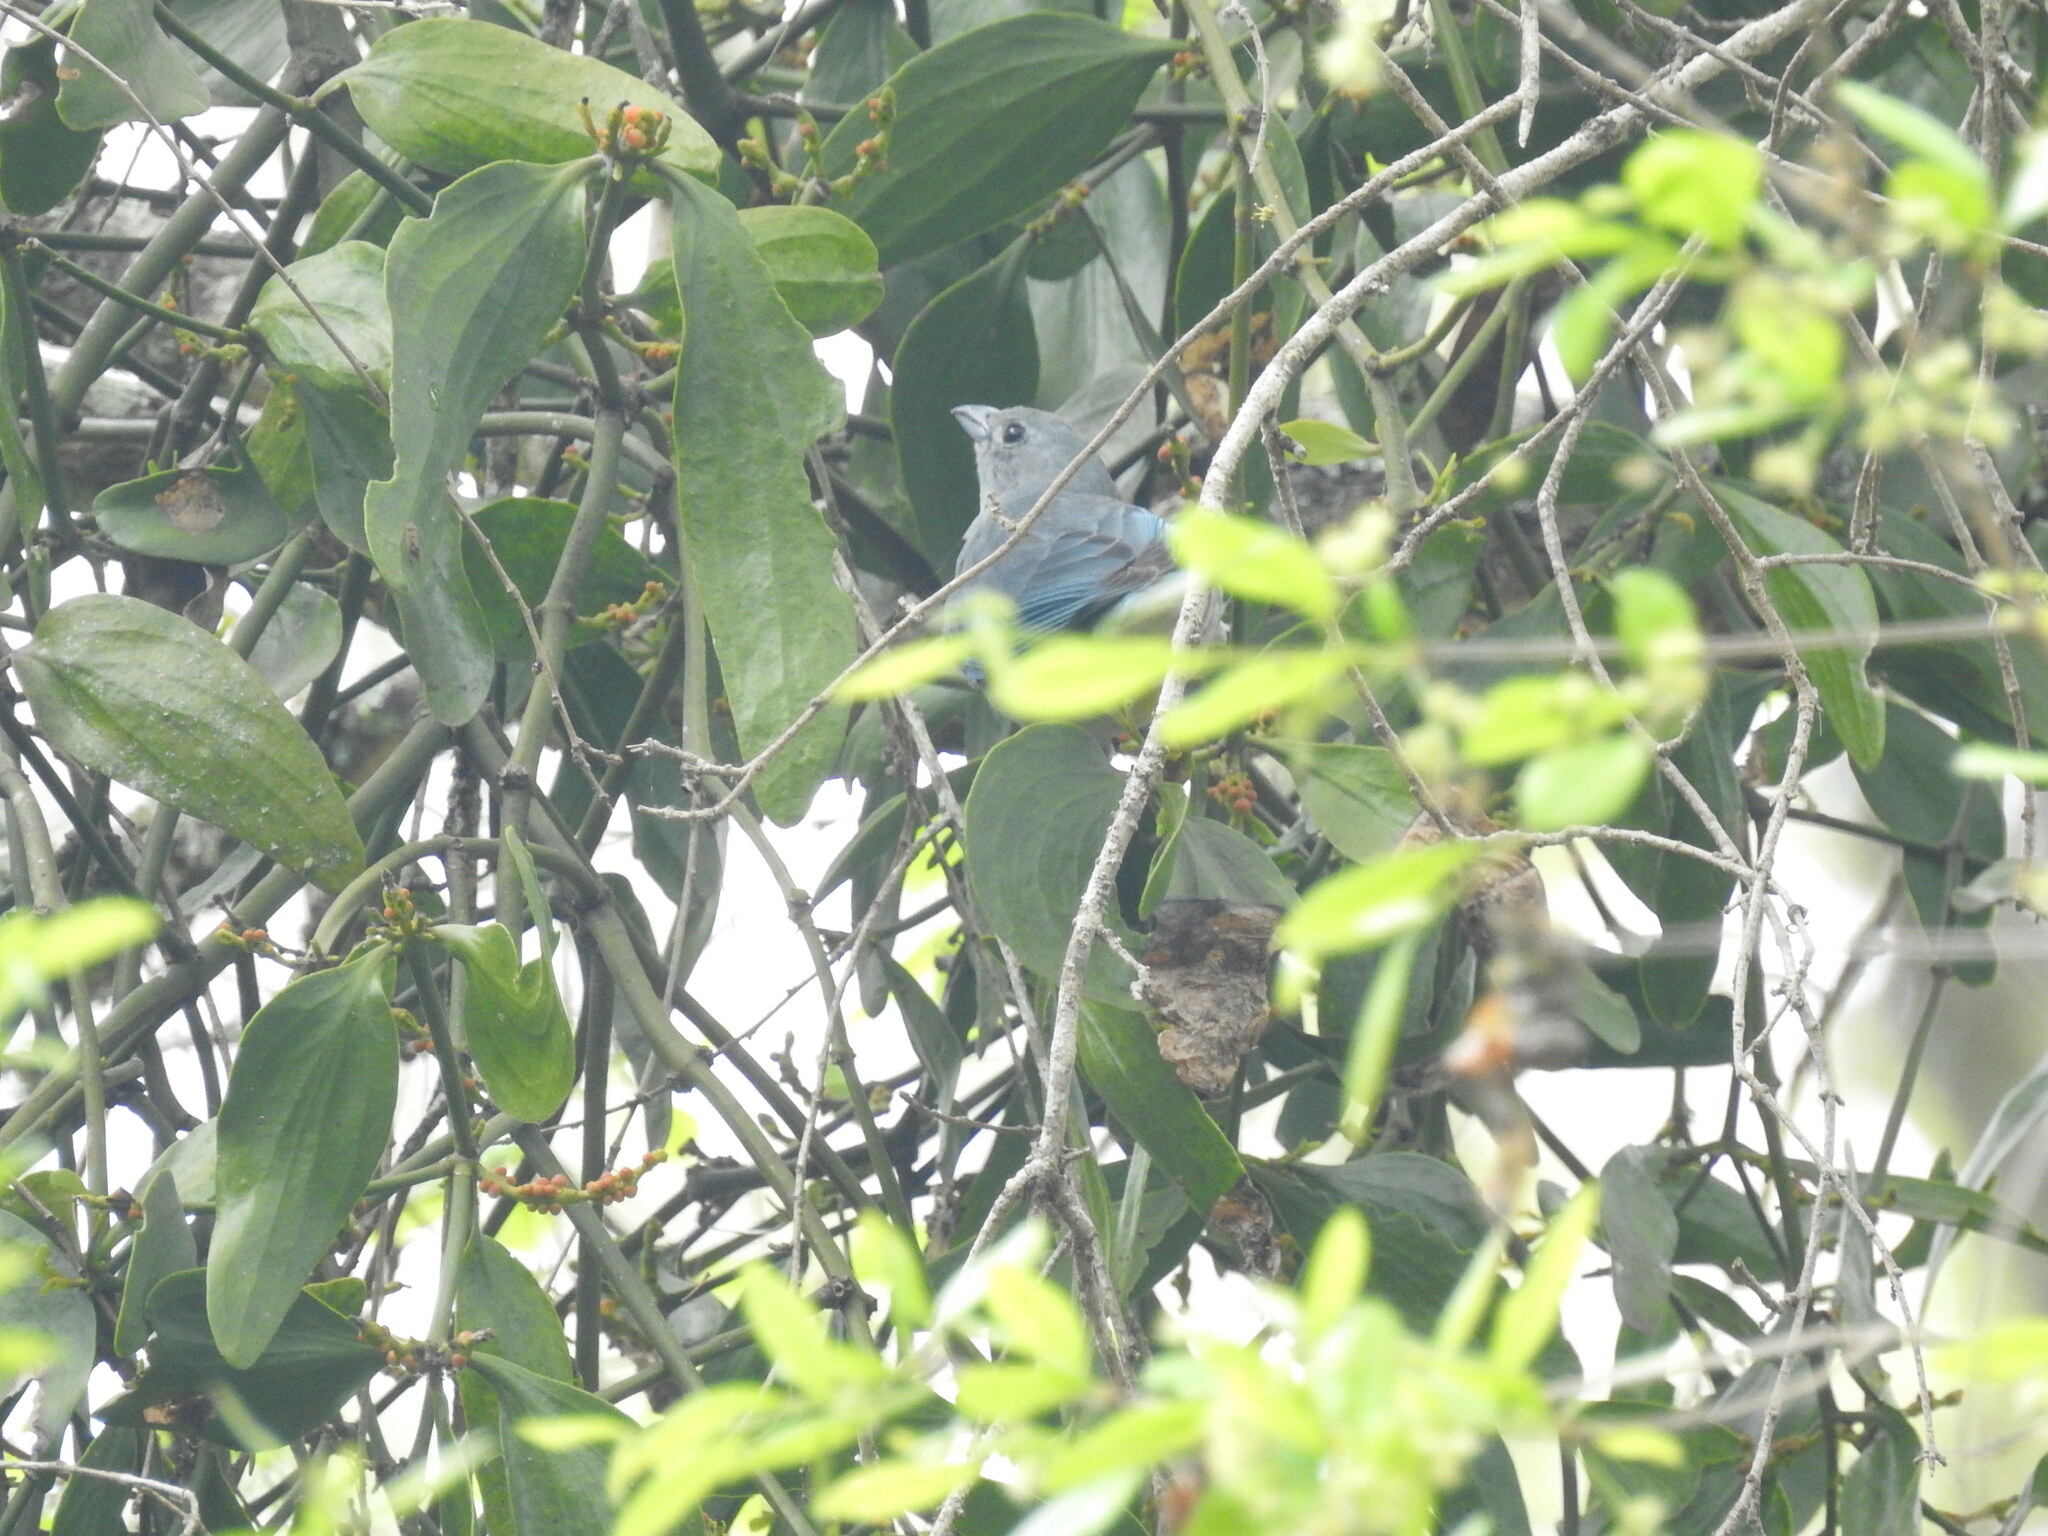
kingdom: Animalia
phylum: Chordata
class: Aves
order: Passeriformes
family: Thraupidae
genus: Thraupis
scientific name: Thraupis sayaca
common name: Sayaca tanager
